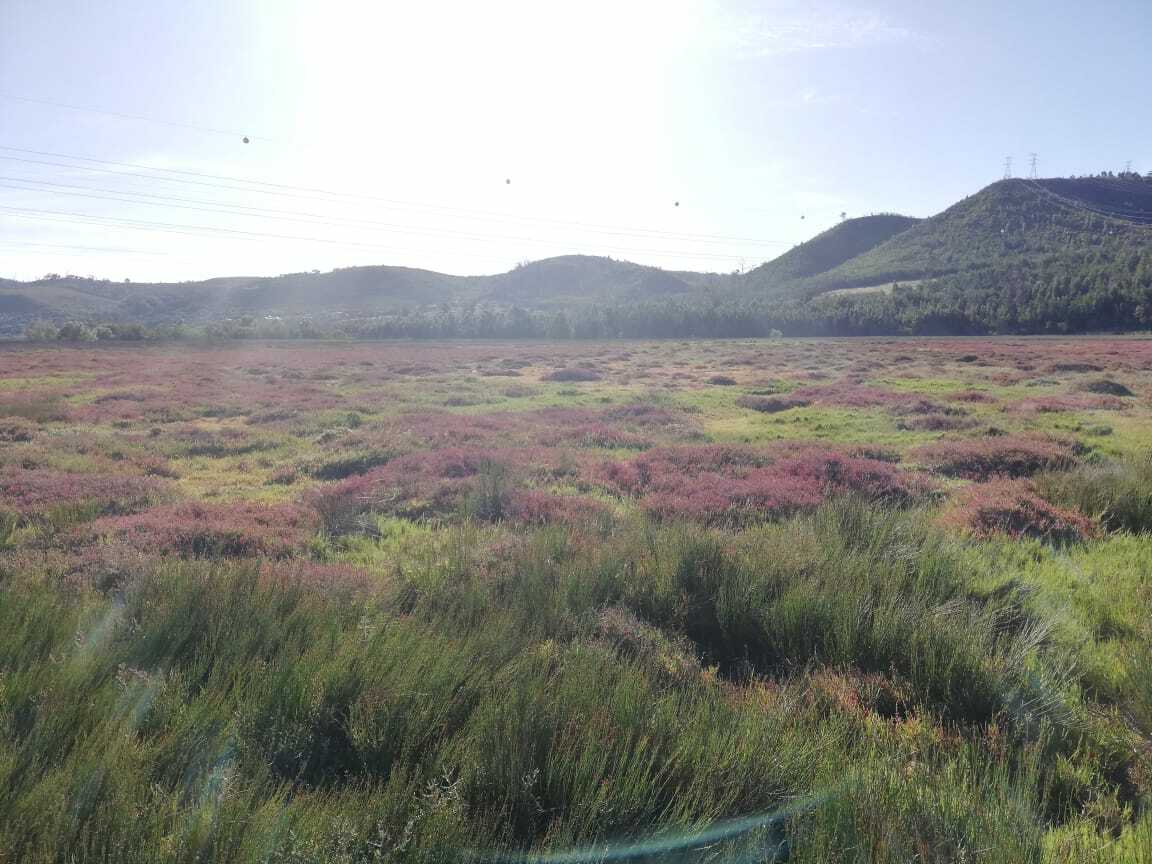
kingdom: Plantae
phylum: Tracheophyta
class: Magnoliopsida
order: Ericales
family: Primulaceae
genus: Samolus
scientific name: Samolus porosus
